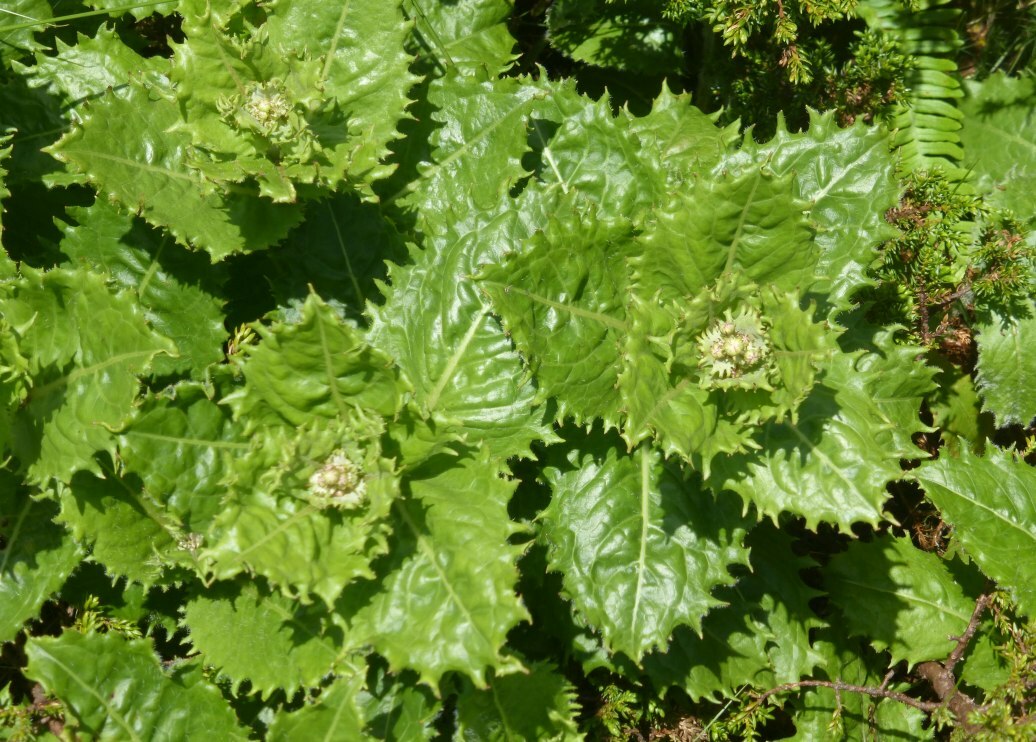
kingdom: Plantae
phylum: Tracheophyta
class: Magnoliopsida
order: Asterales
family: Asteraceae
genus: Tolpis
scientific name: Tolpis azorica
